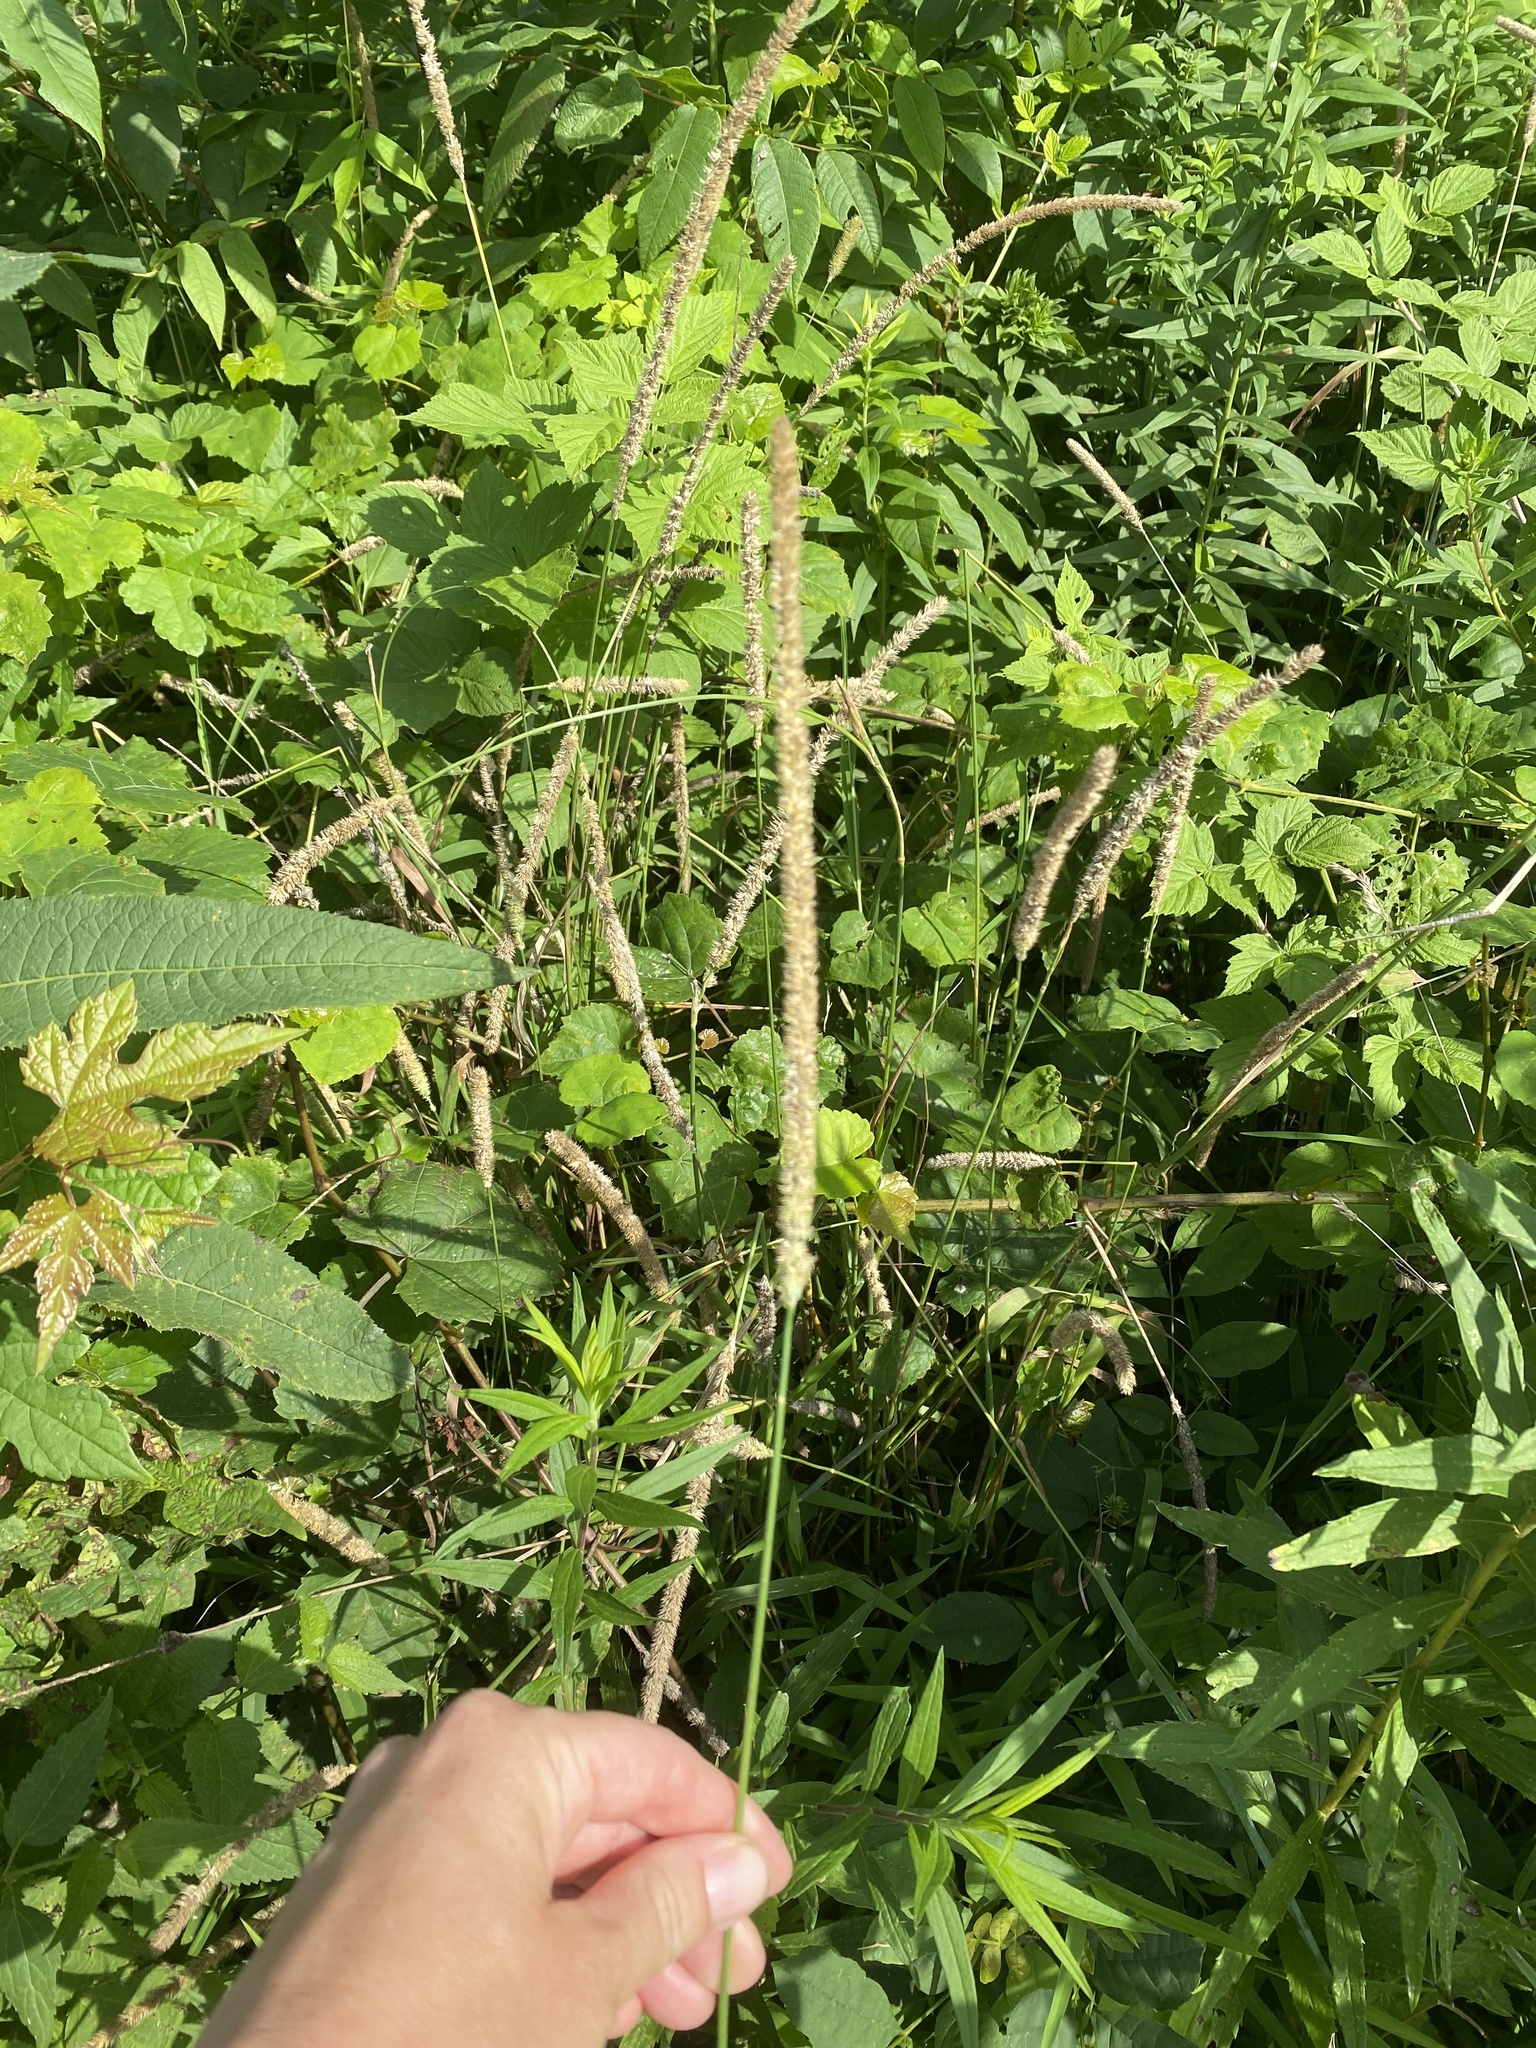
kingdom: Plantae
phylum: Tracheophyta
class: Liliopsida
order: Poales
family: Poaceae
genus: Phleum
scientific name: Phleum pratense
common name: Timothy grass
